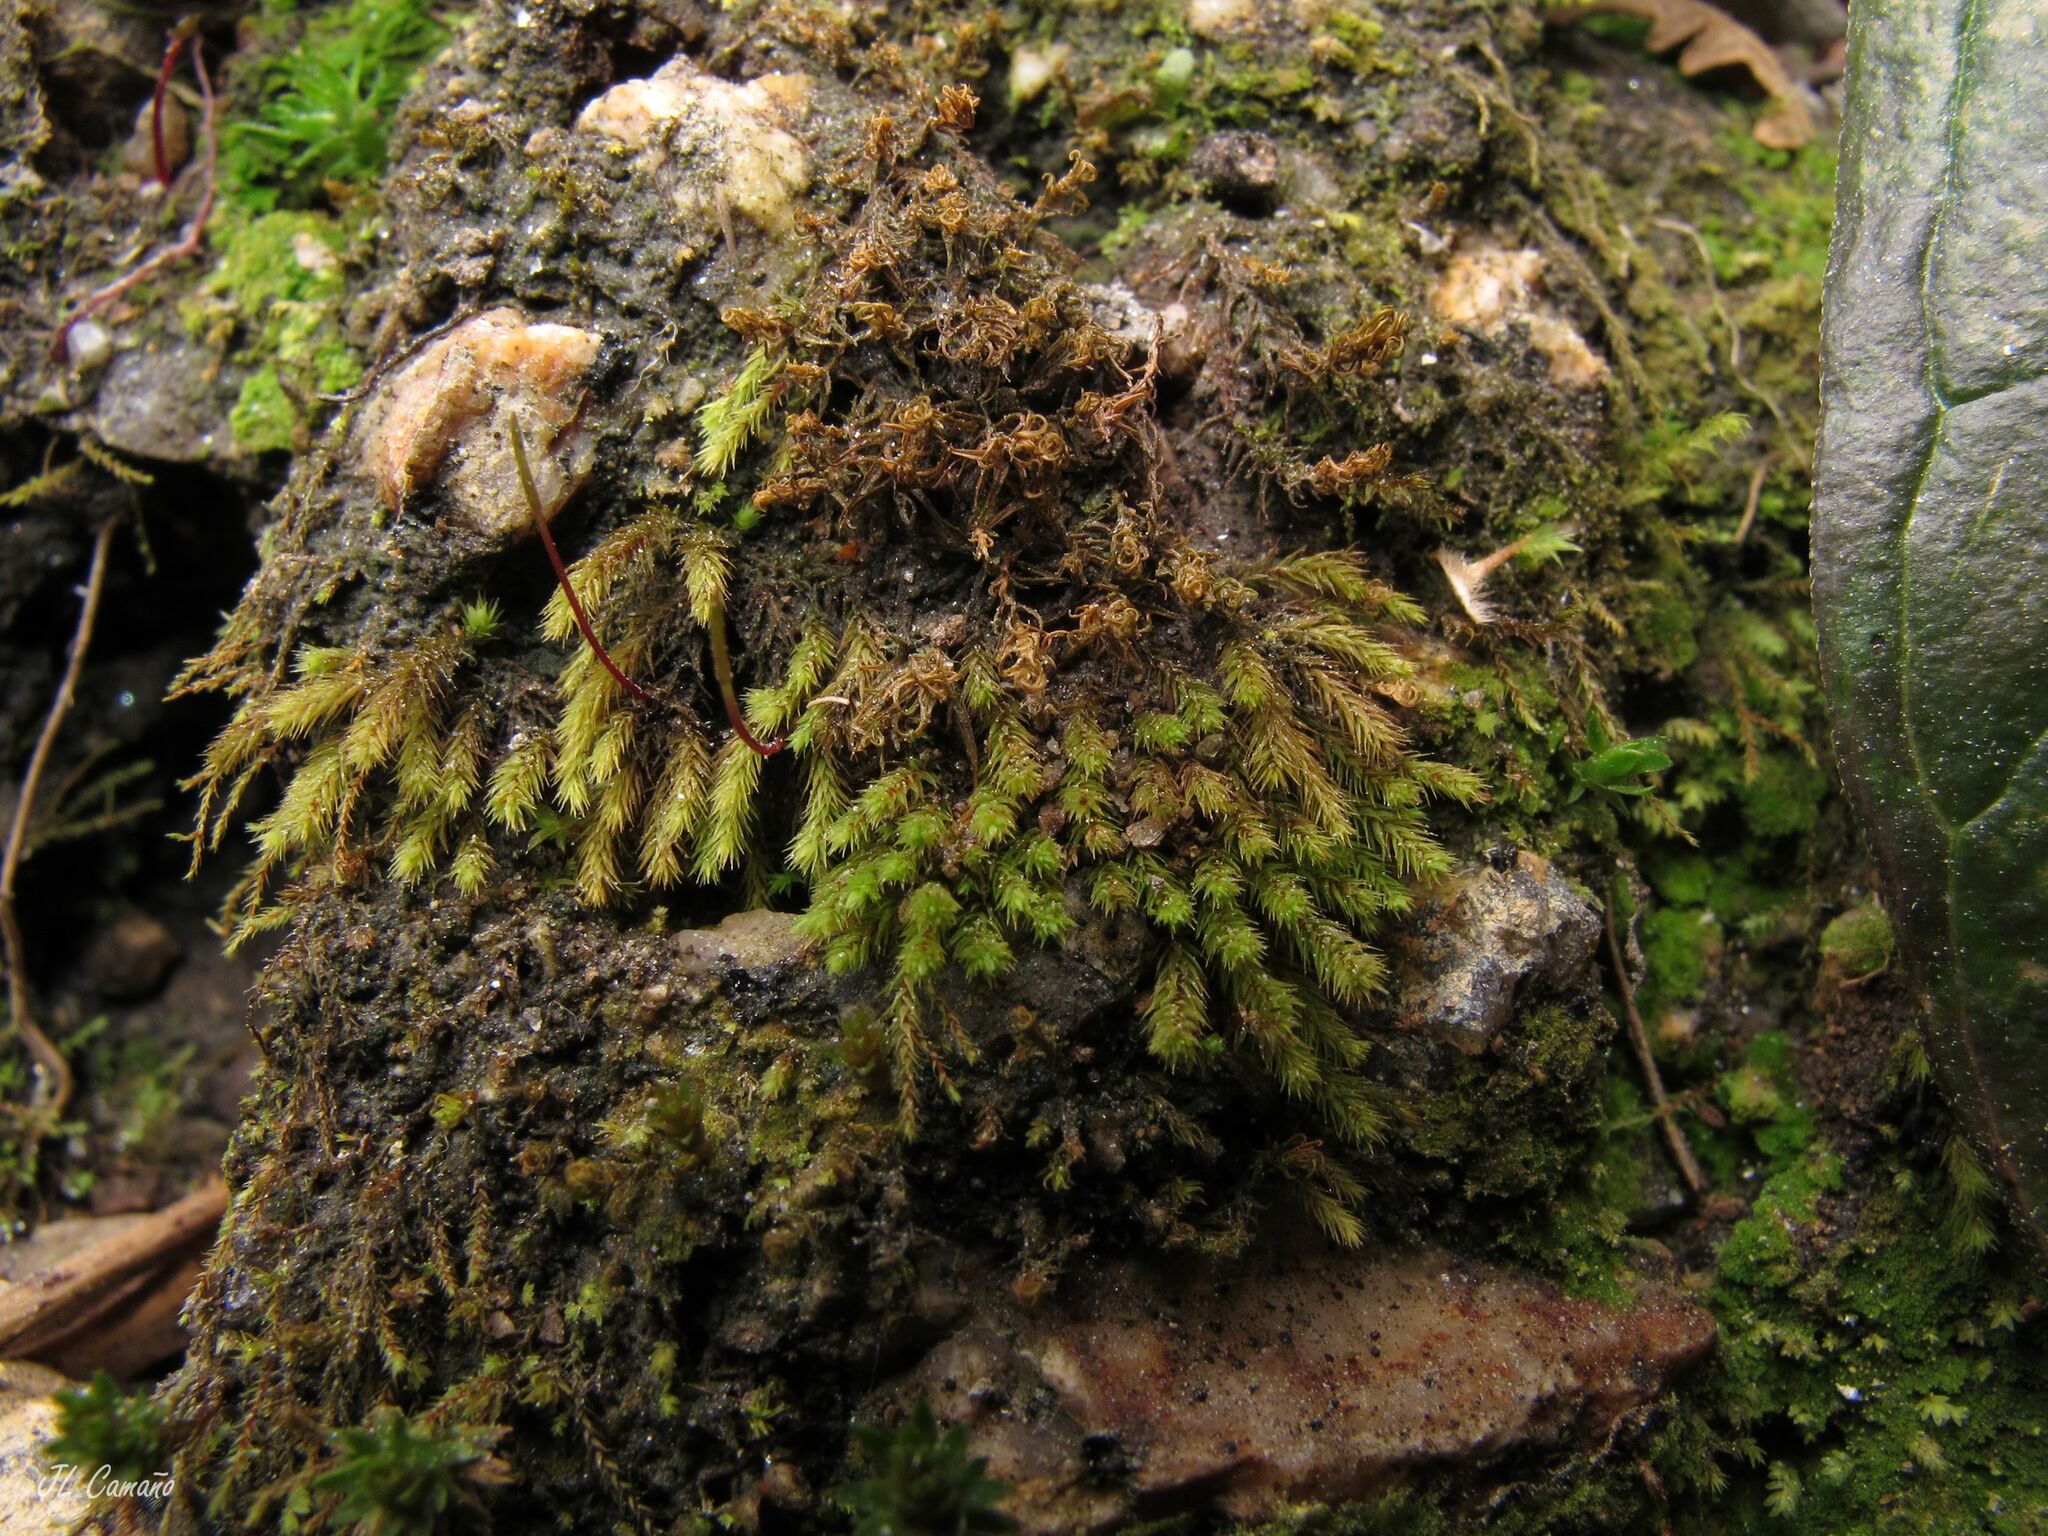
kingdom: Plantae
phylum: Bryophyta
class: Bryopsida
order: Bartramiales
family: Bartramiaceae
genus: Philonotis
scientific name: Philonotis rigida
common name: Rigid apple-moss
